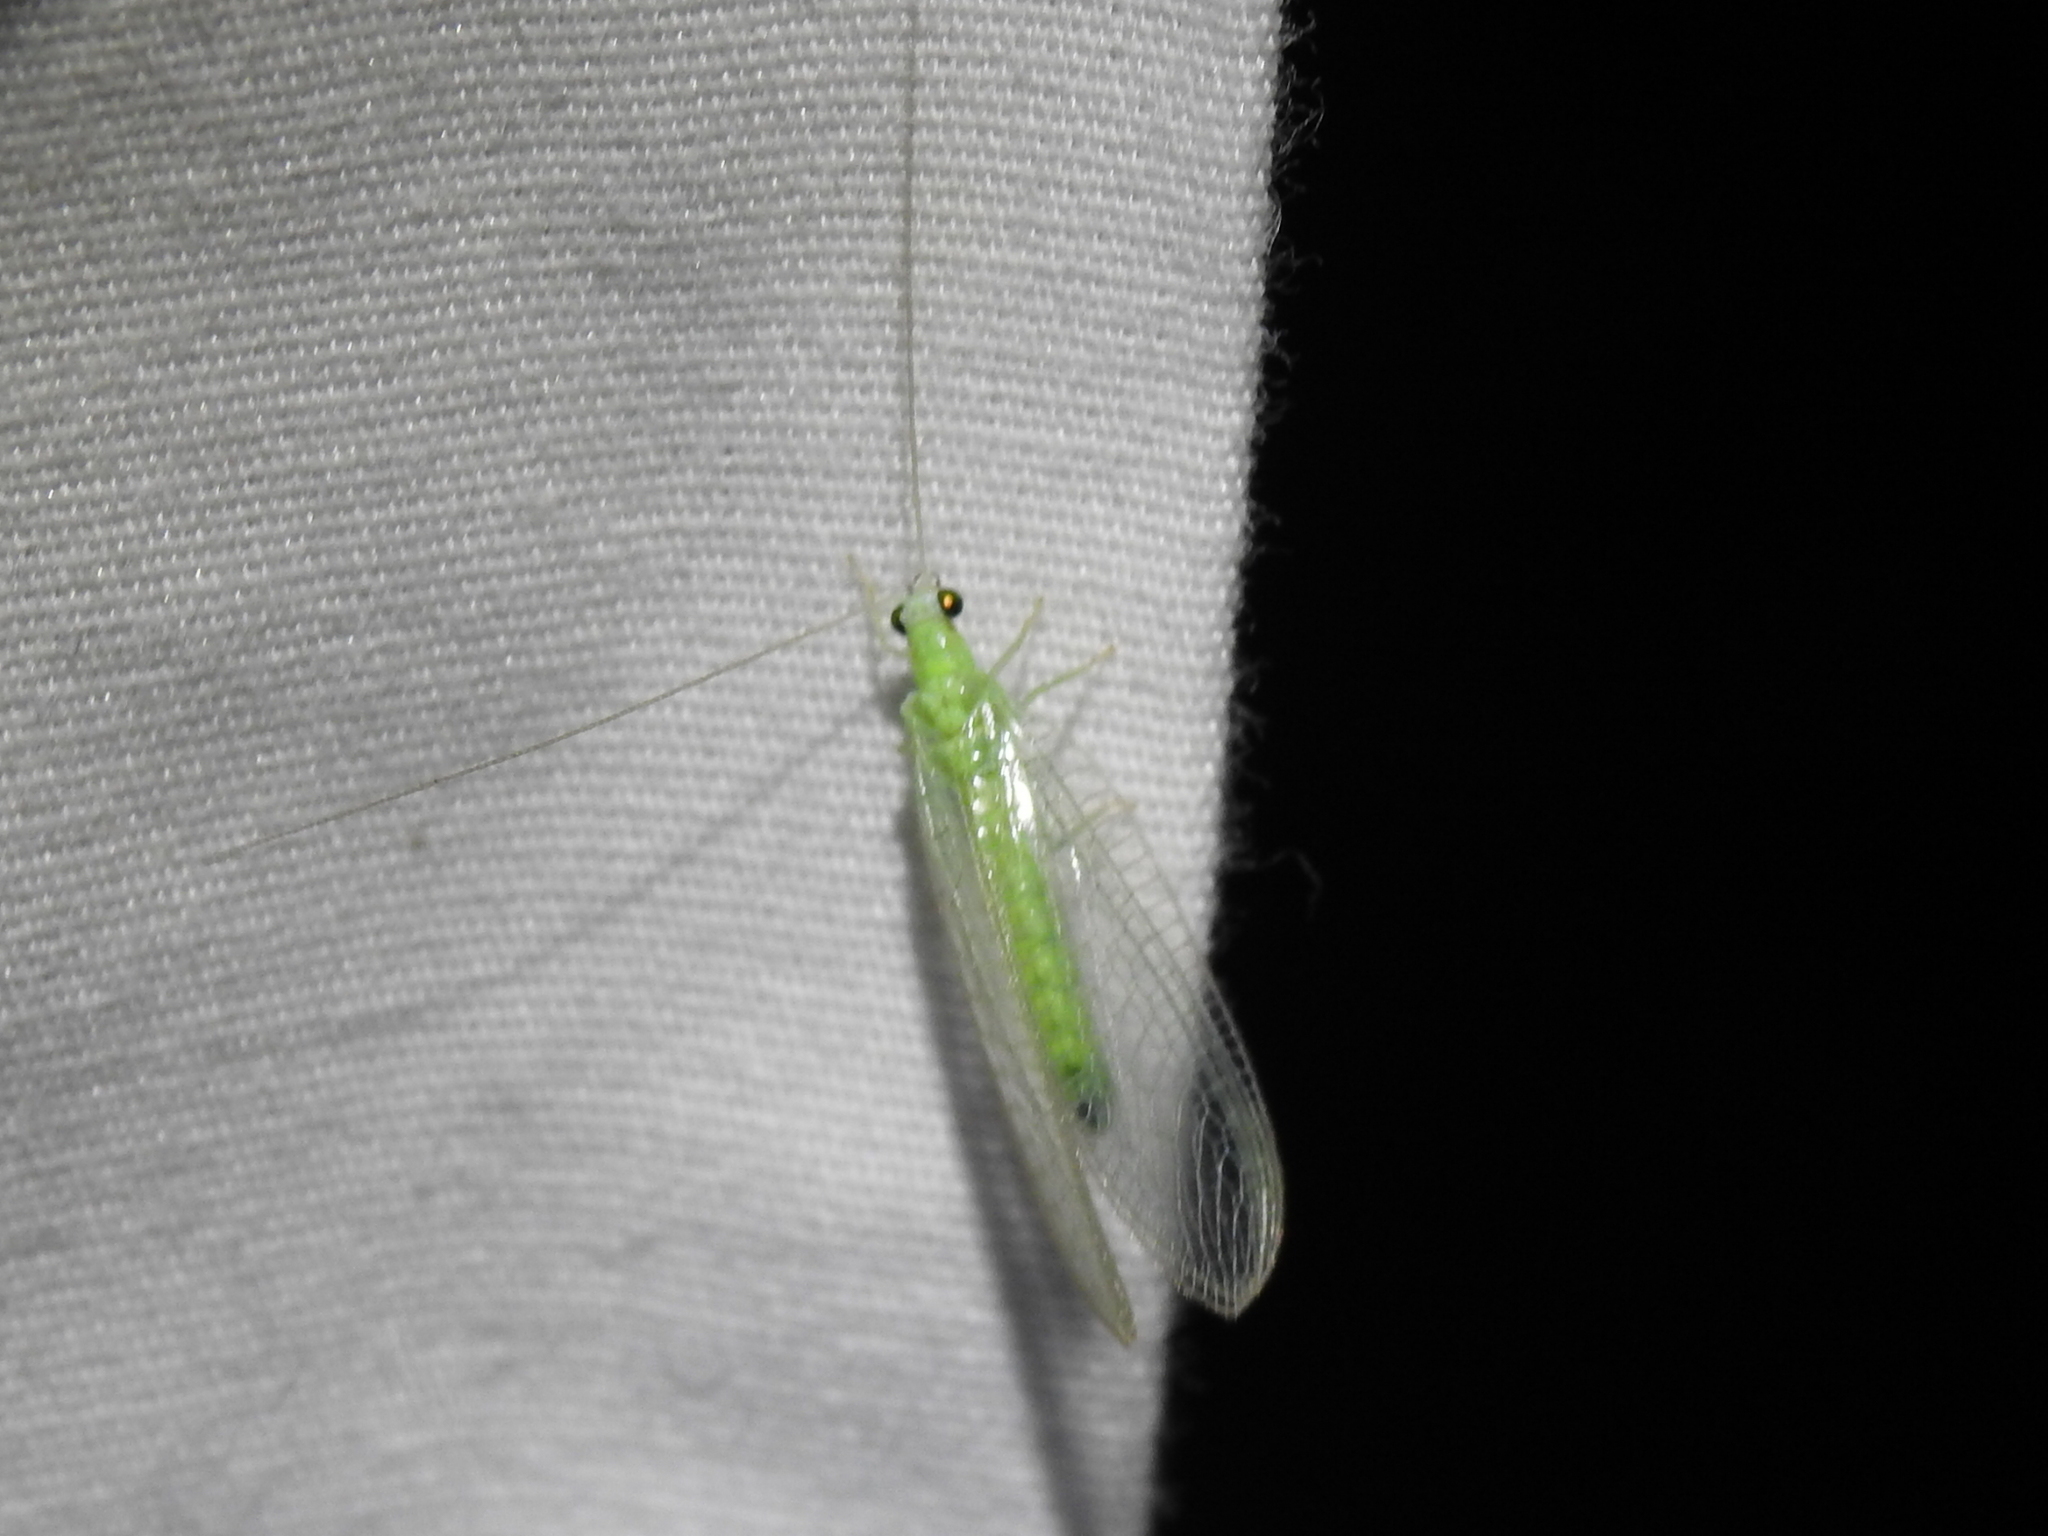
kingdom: Animalia
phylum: Arthropoda
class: Insecta
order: Neuroptera
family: Chrysopidae
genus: Chrysopa
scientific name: Chrysopa nigricornis
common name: Black-horned green lacewing
